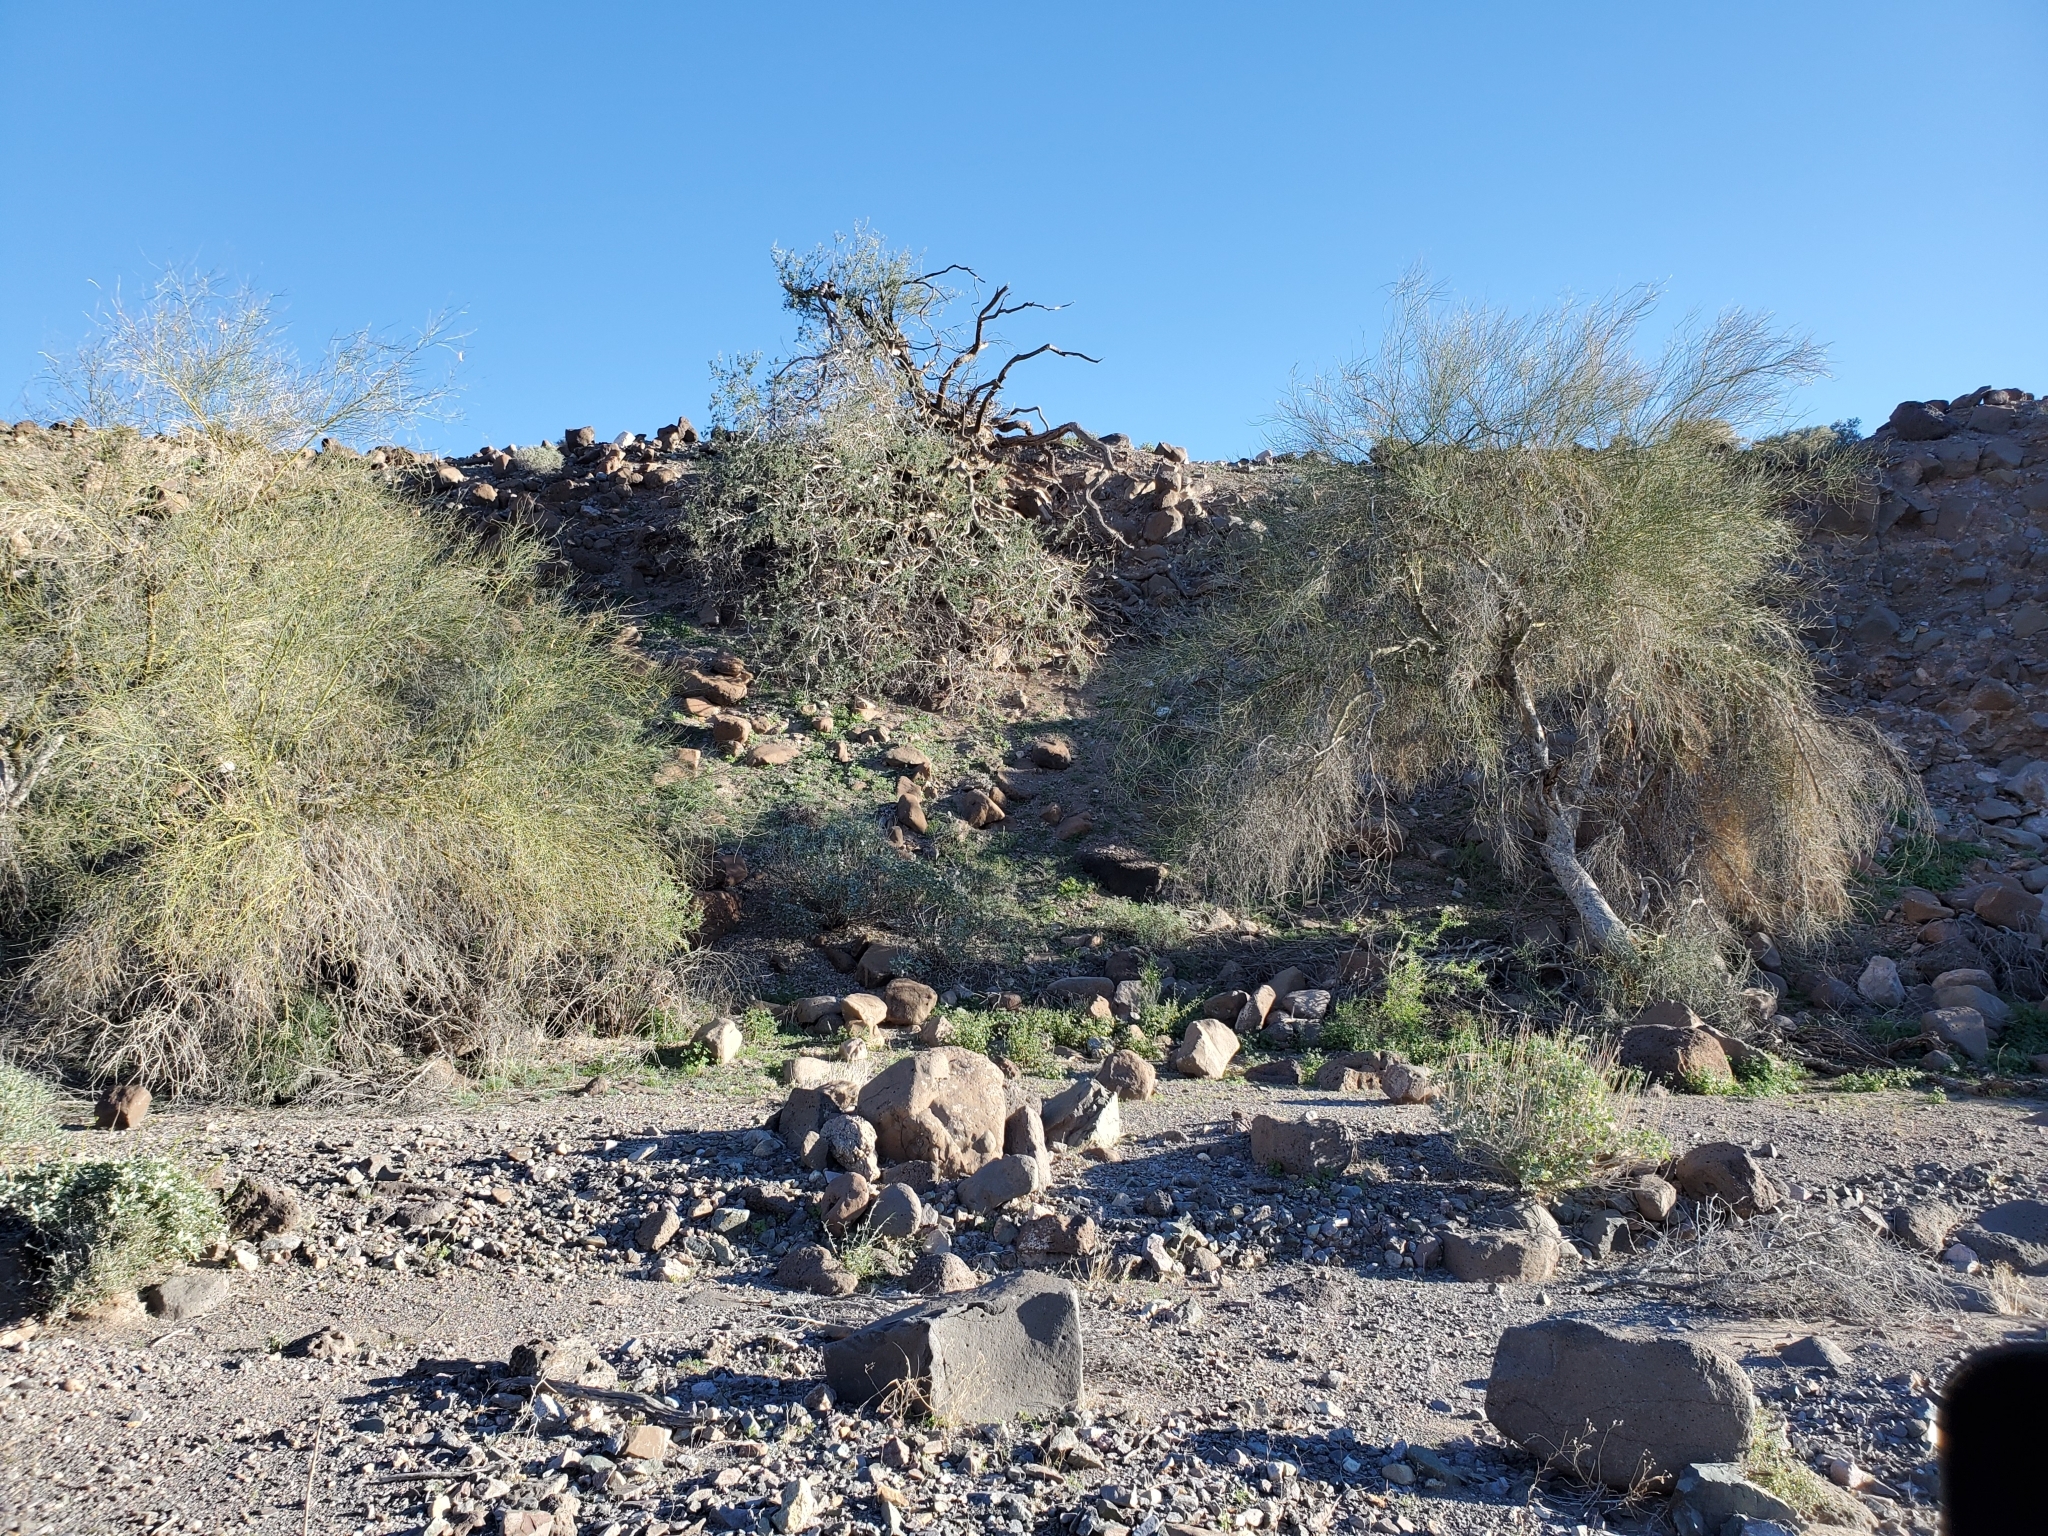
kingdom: Plantae
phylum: Tracheophyta
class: Magnoliopsida
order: Fabales
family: Fabaceae
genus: Olneya
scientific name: Olneya tesota
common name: Desert ironwood
